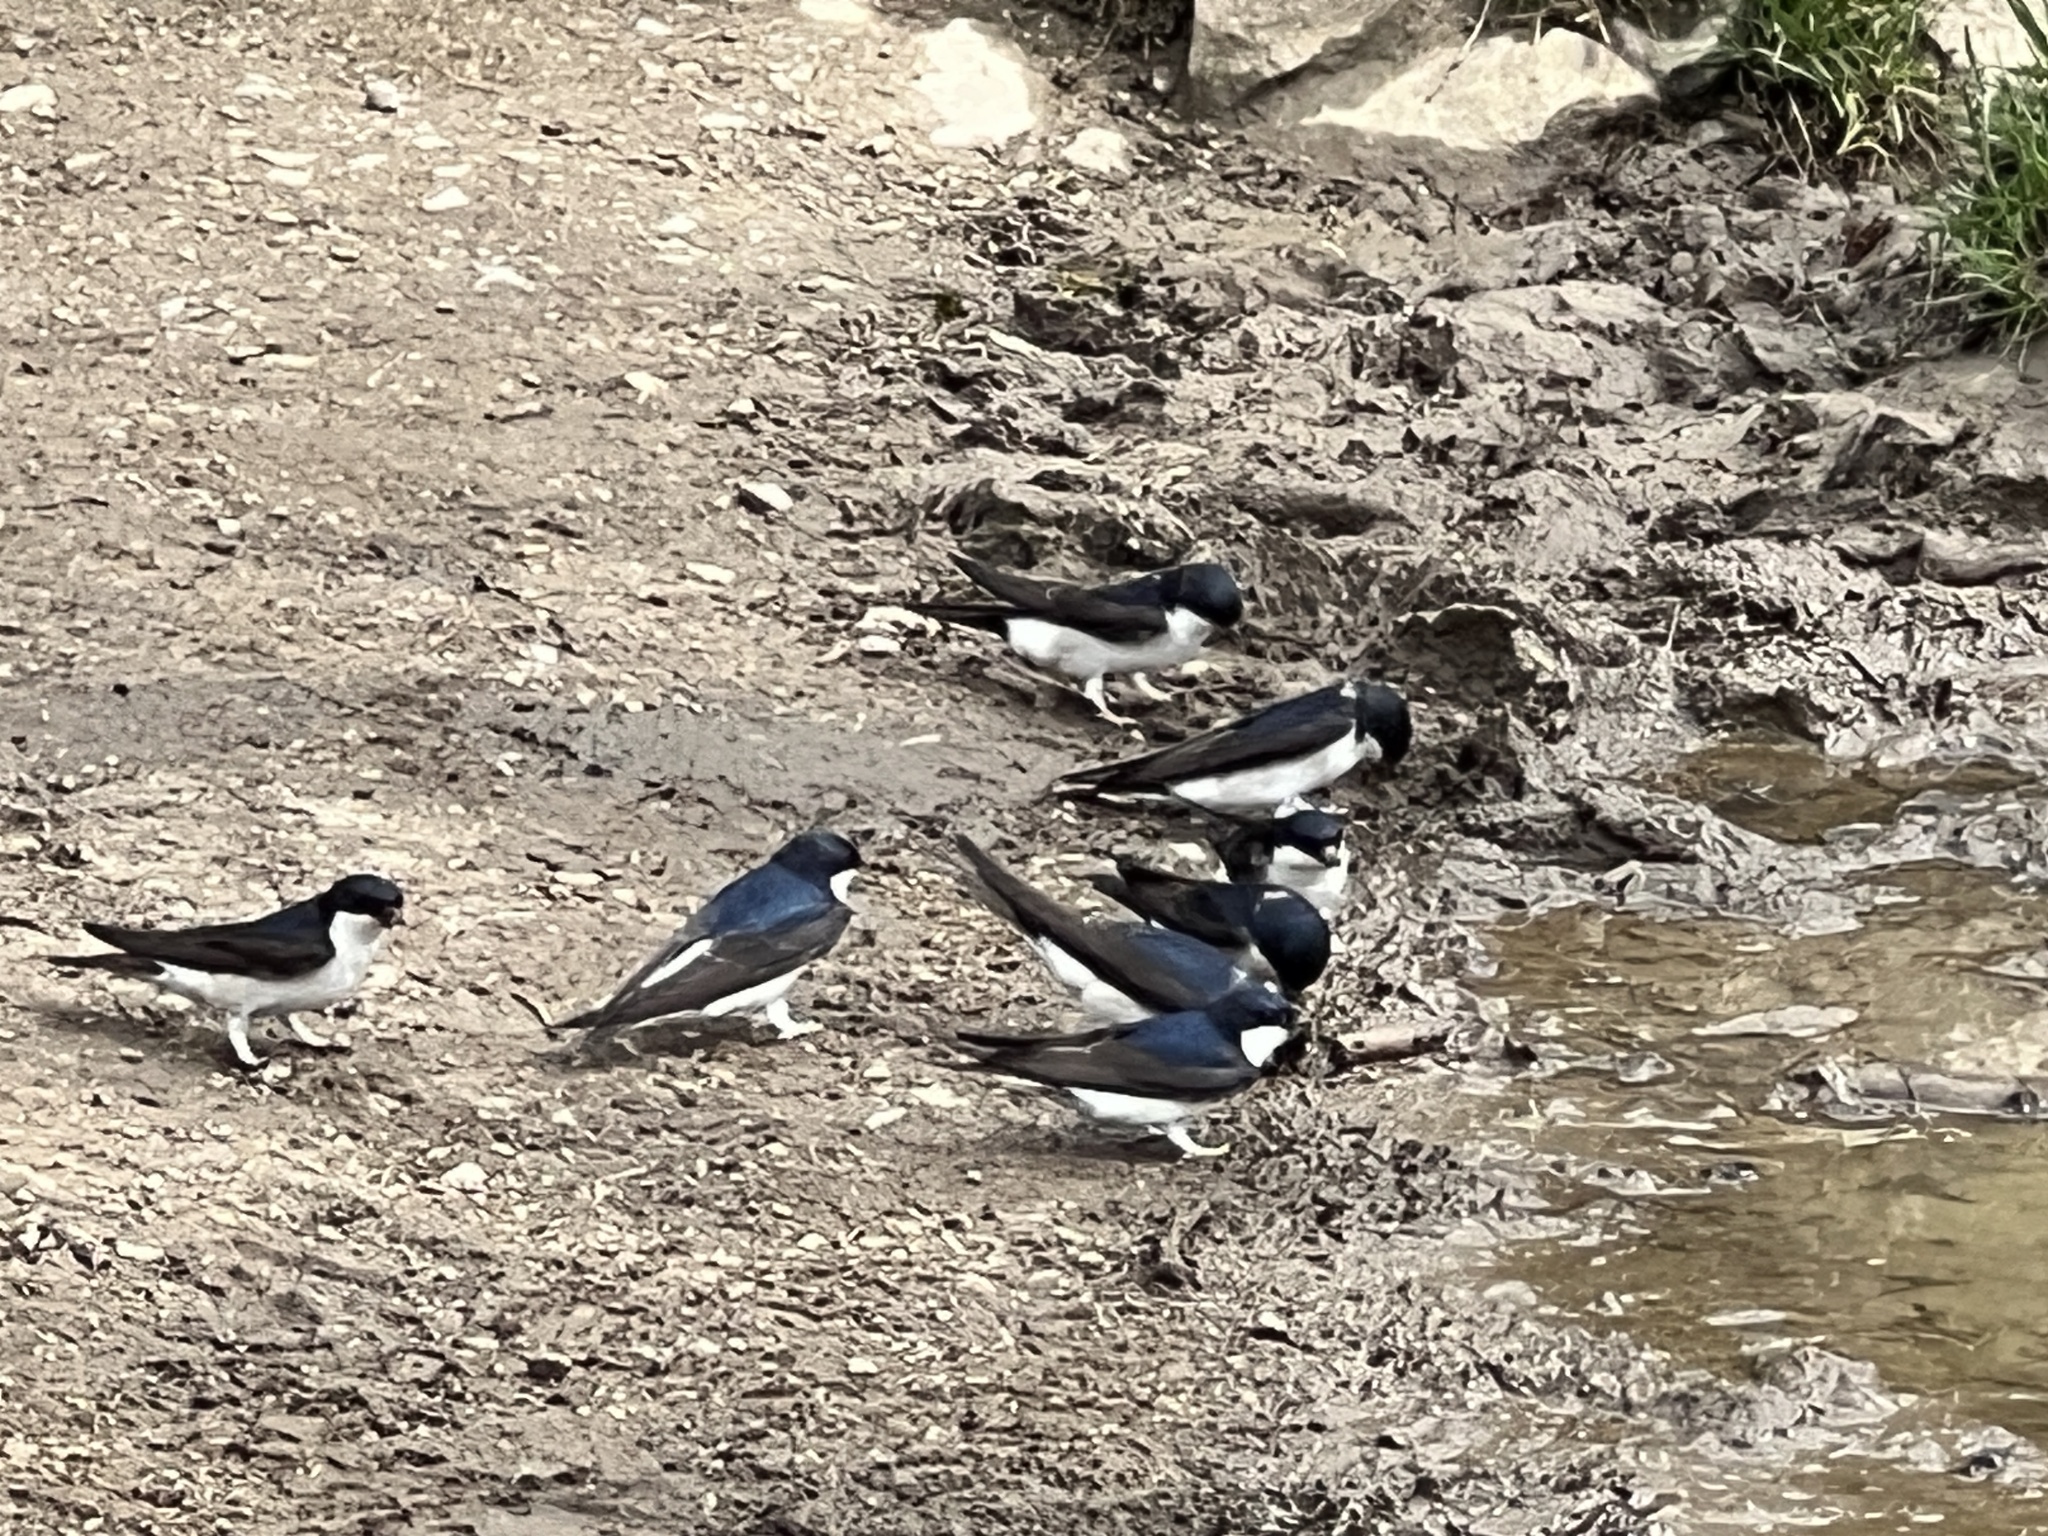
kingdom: Animalia
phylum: Chordata
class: Aves
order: Passeriformes
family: Hirundinidae
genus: Delichon
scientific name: Delichon urbicum
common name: Common house martin
